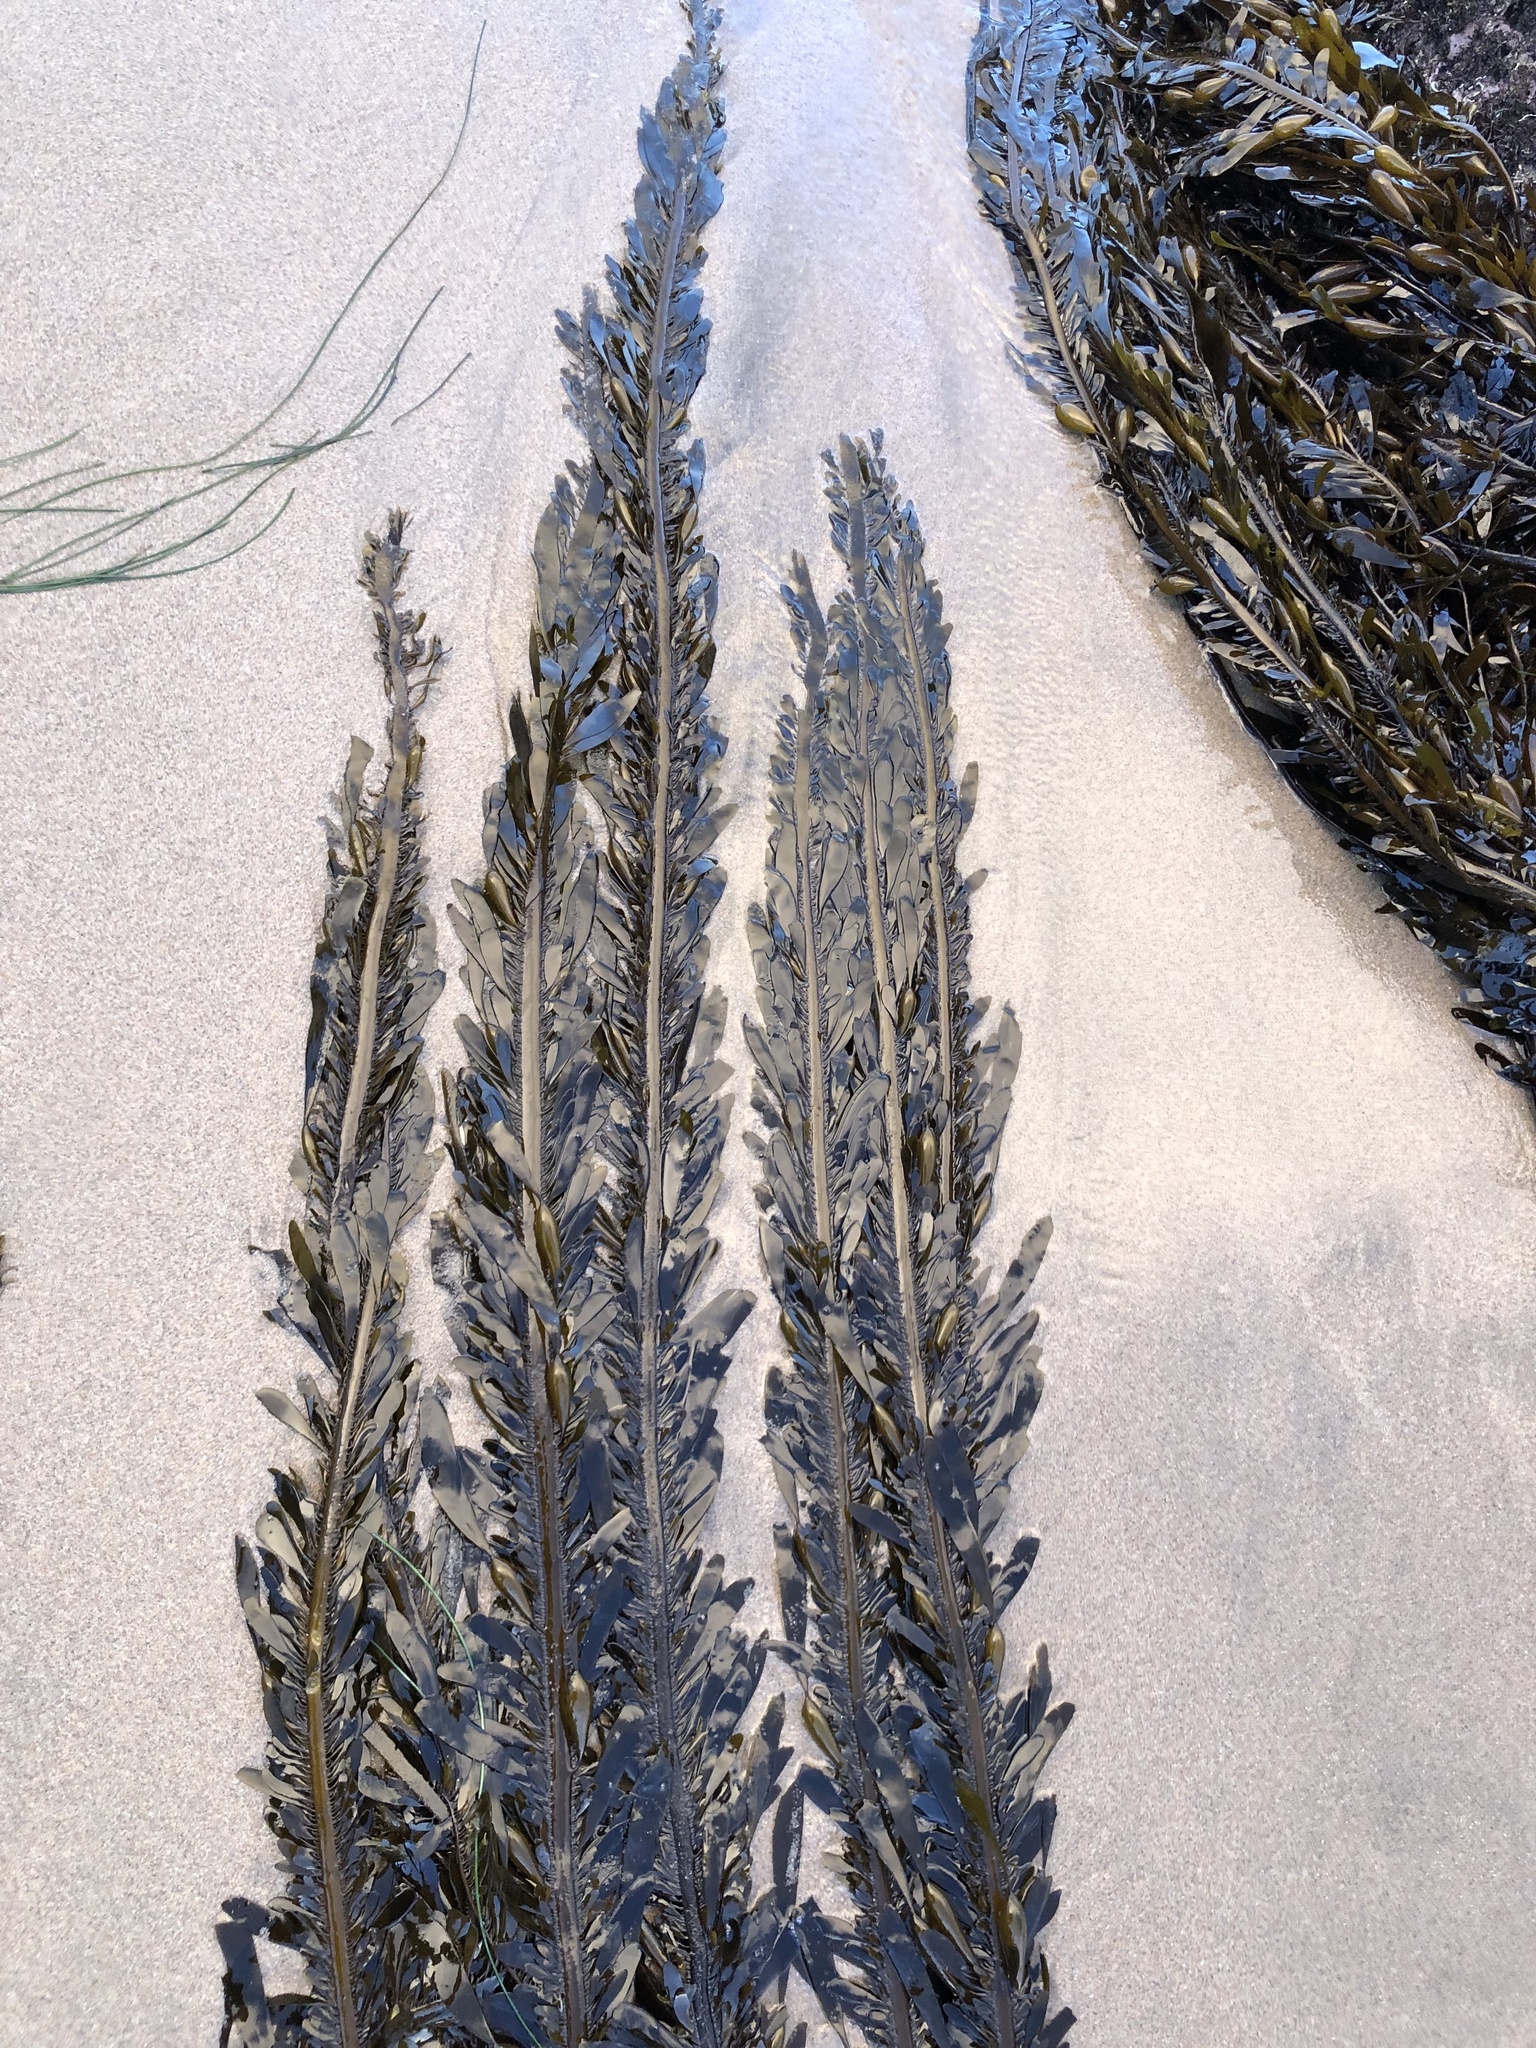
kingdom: Chromista
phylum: Ochrophyta
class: Phaeophyceae
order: Laminariales
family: Lessoniaceae
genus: Egregia
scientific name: Egregia menziesii
